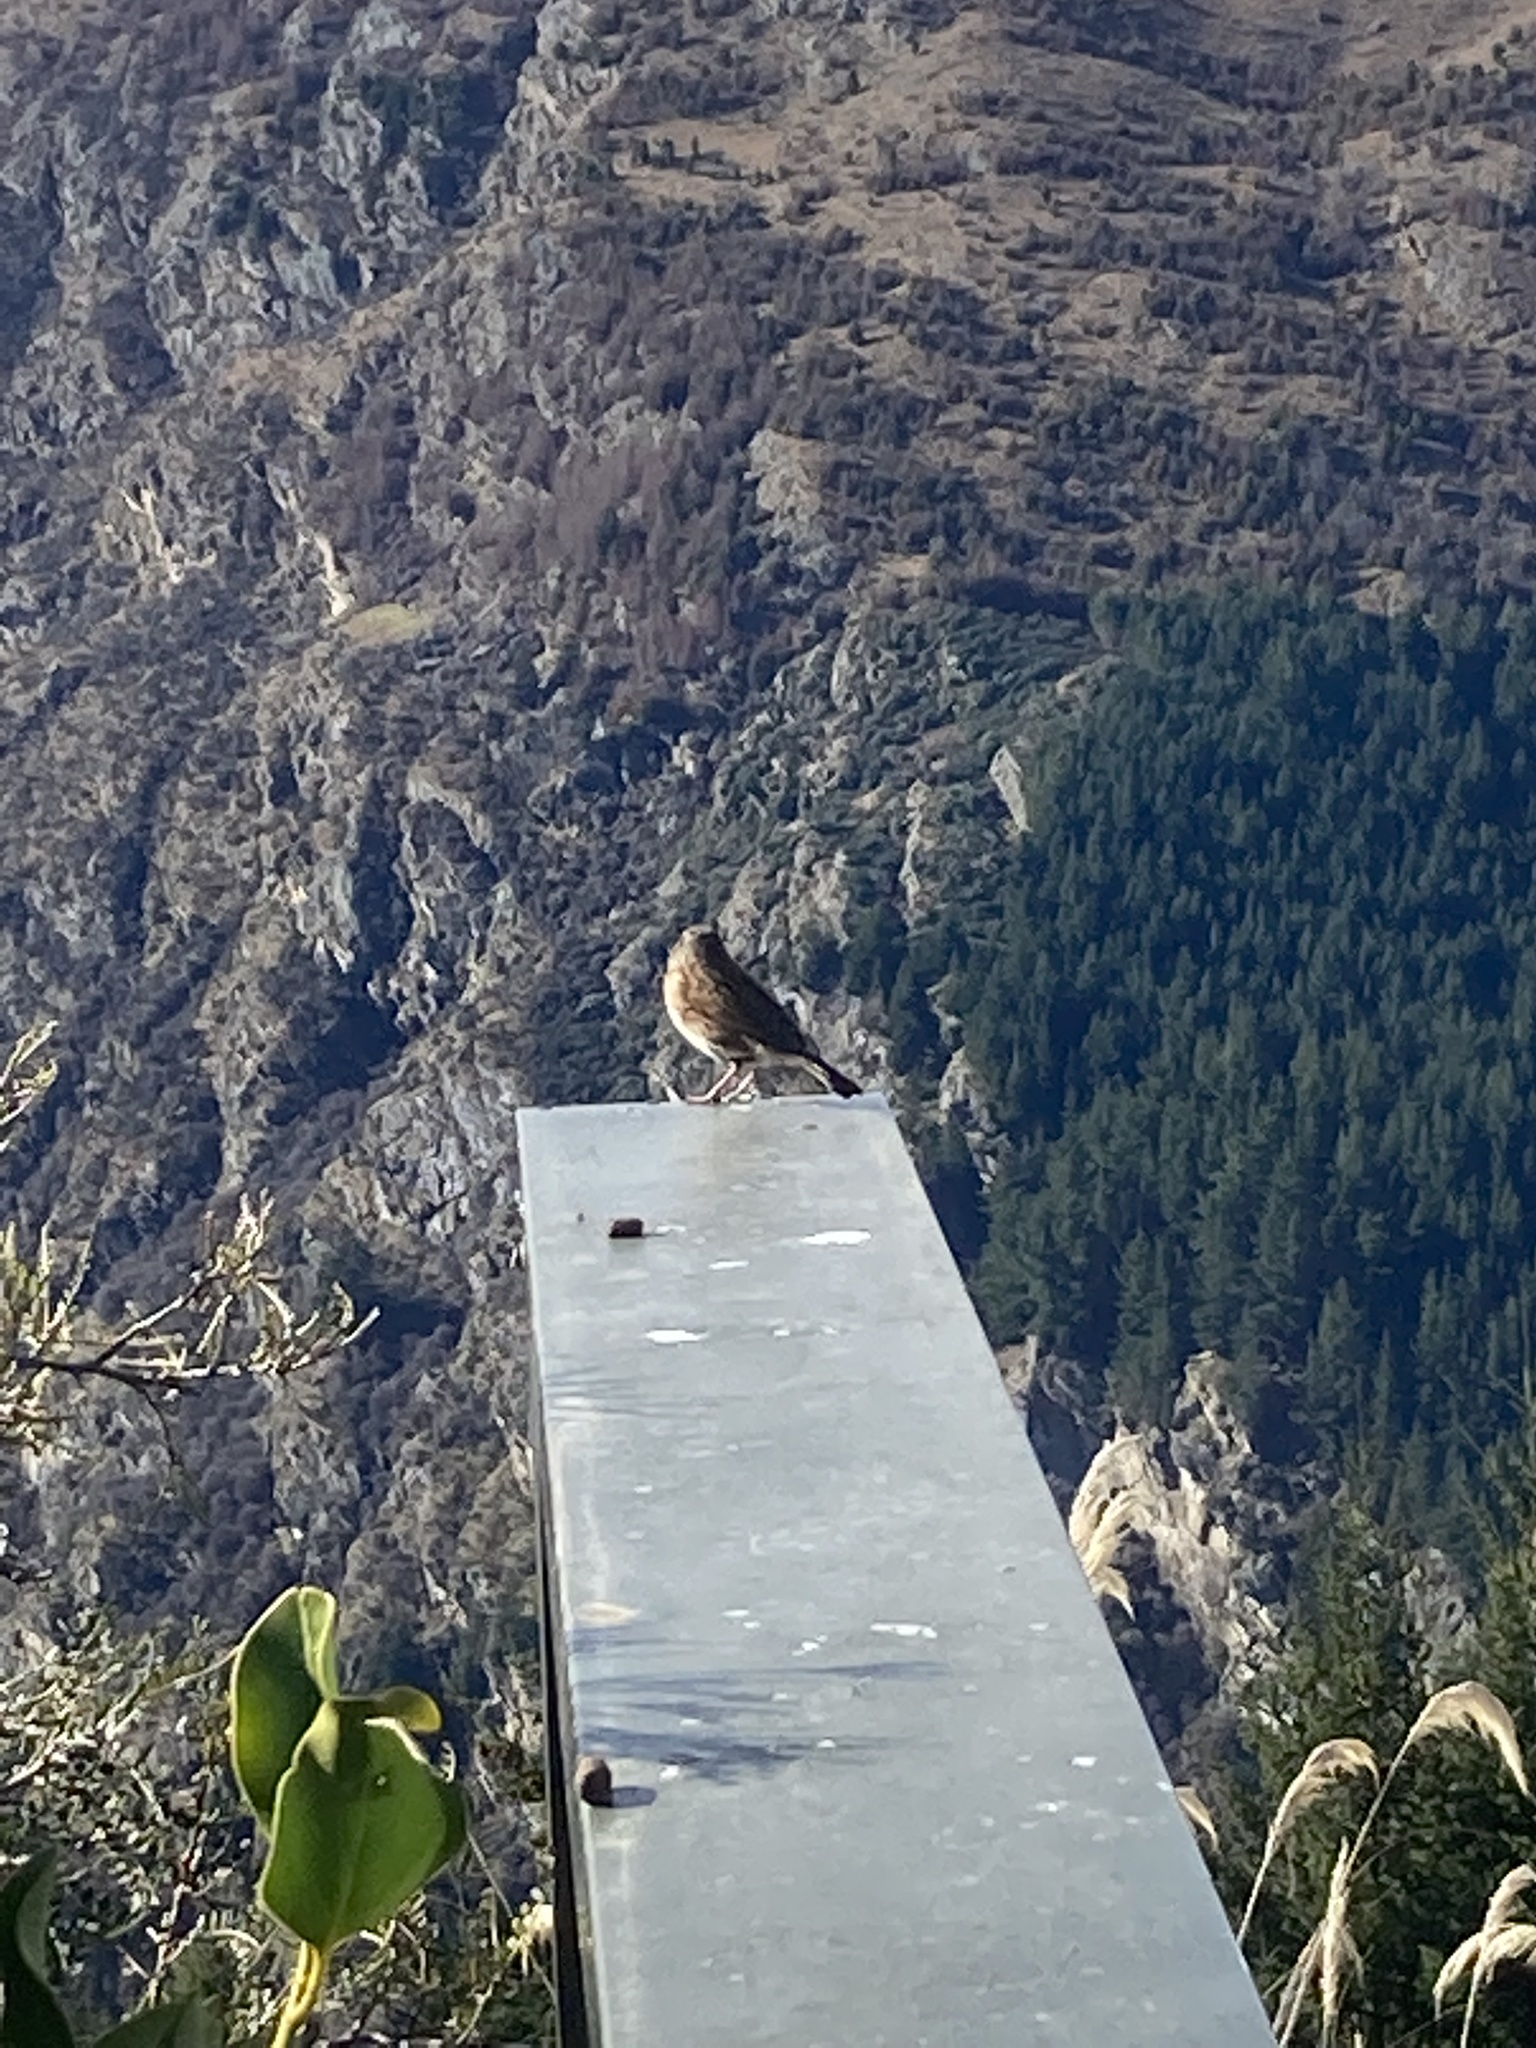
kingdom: Animalia
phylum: Chordata
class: Aves
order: Passeriformes
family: Prunellidae
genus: Prunella
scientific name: Prunella modularis
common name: Dunnock
